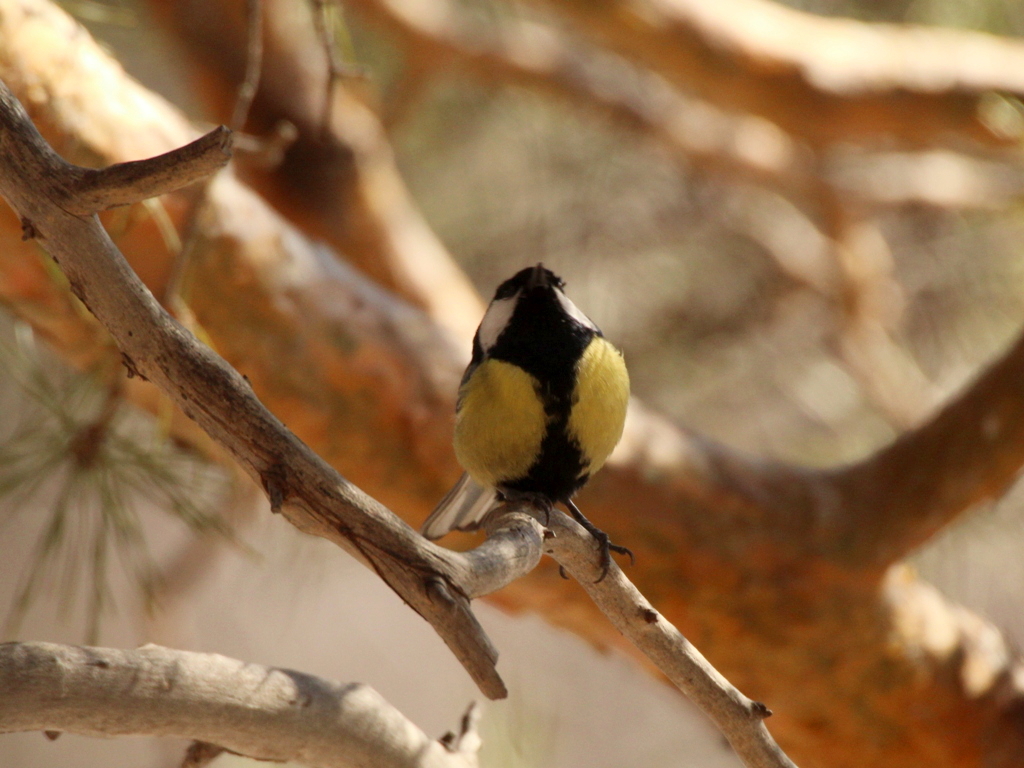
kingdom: Animalia
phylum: Chordata
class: Aves
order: Passeriformes
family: Paridae
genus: Parus
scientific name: Parus major
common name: Great tit
